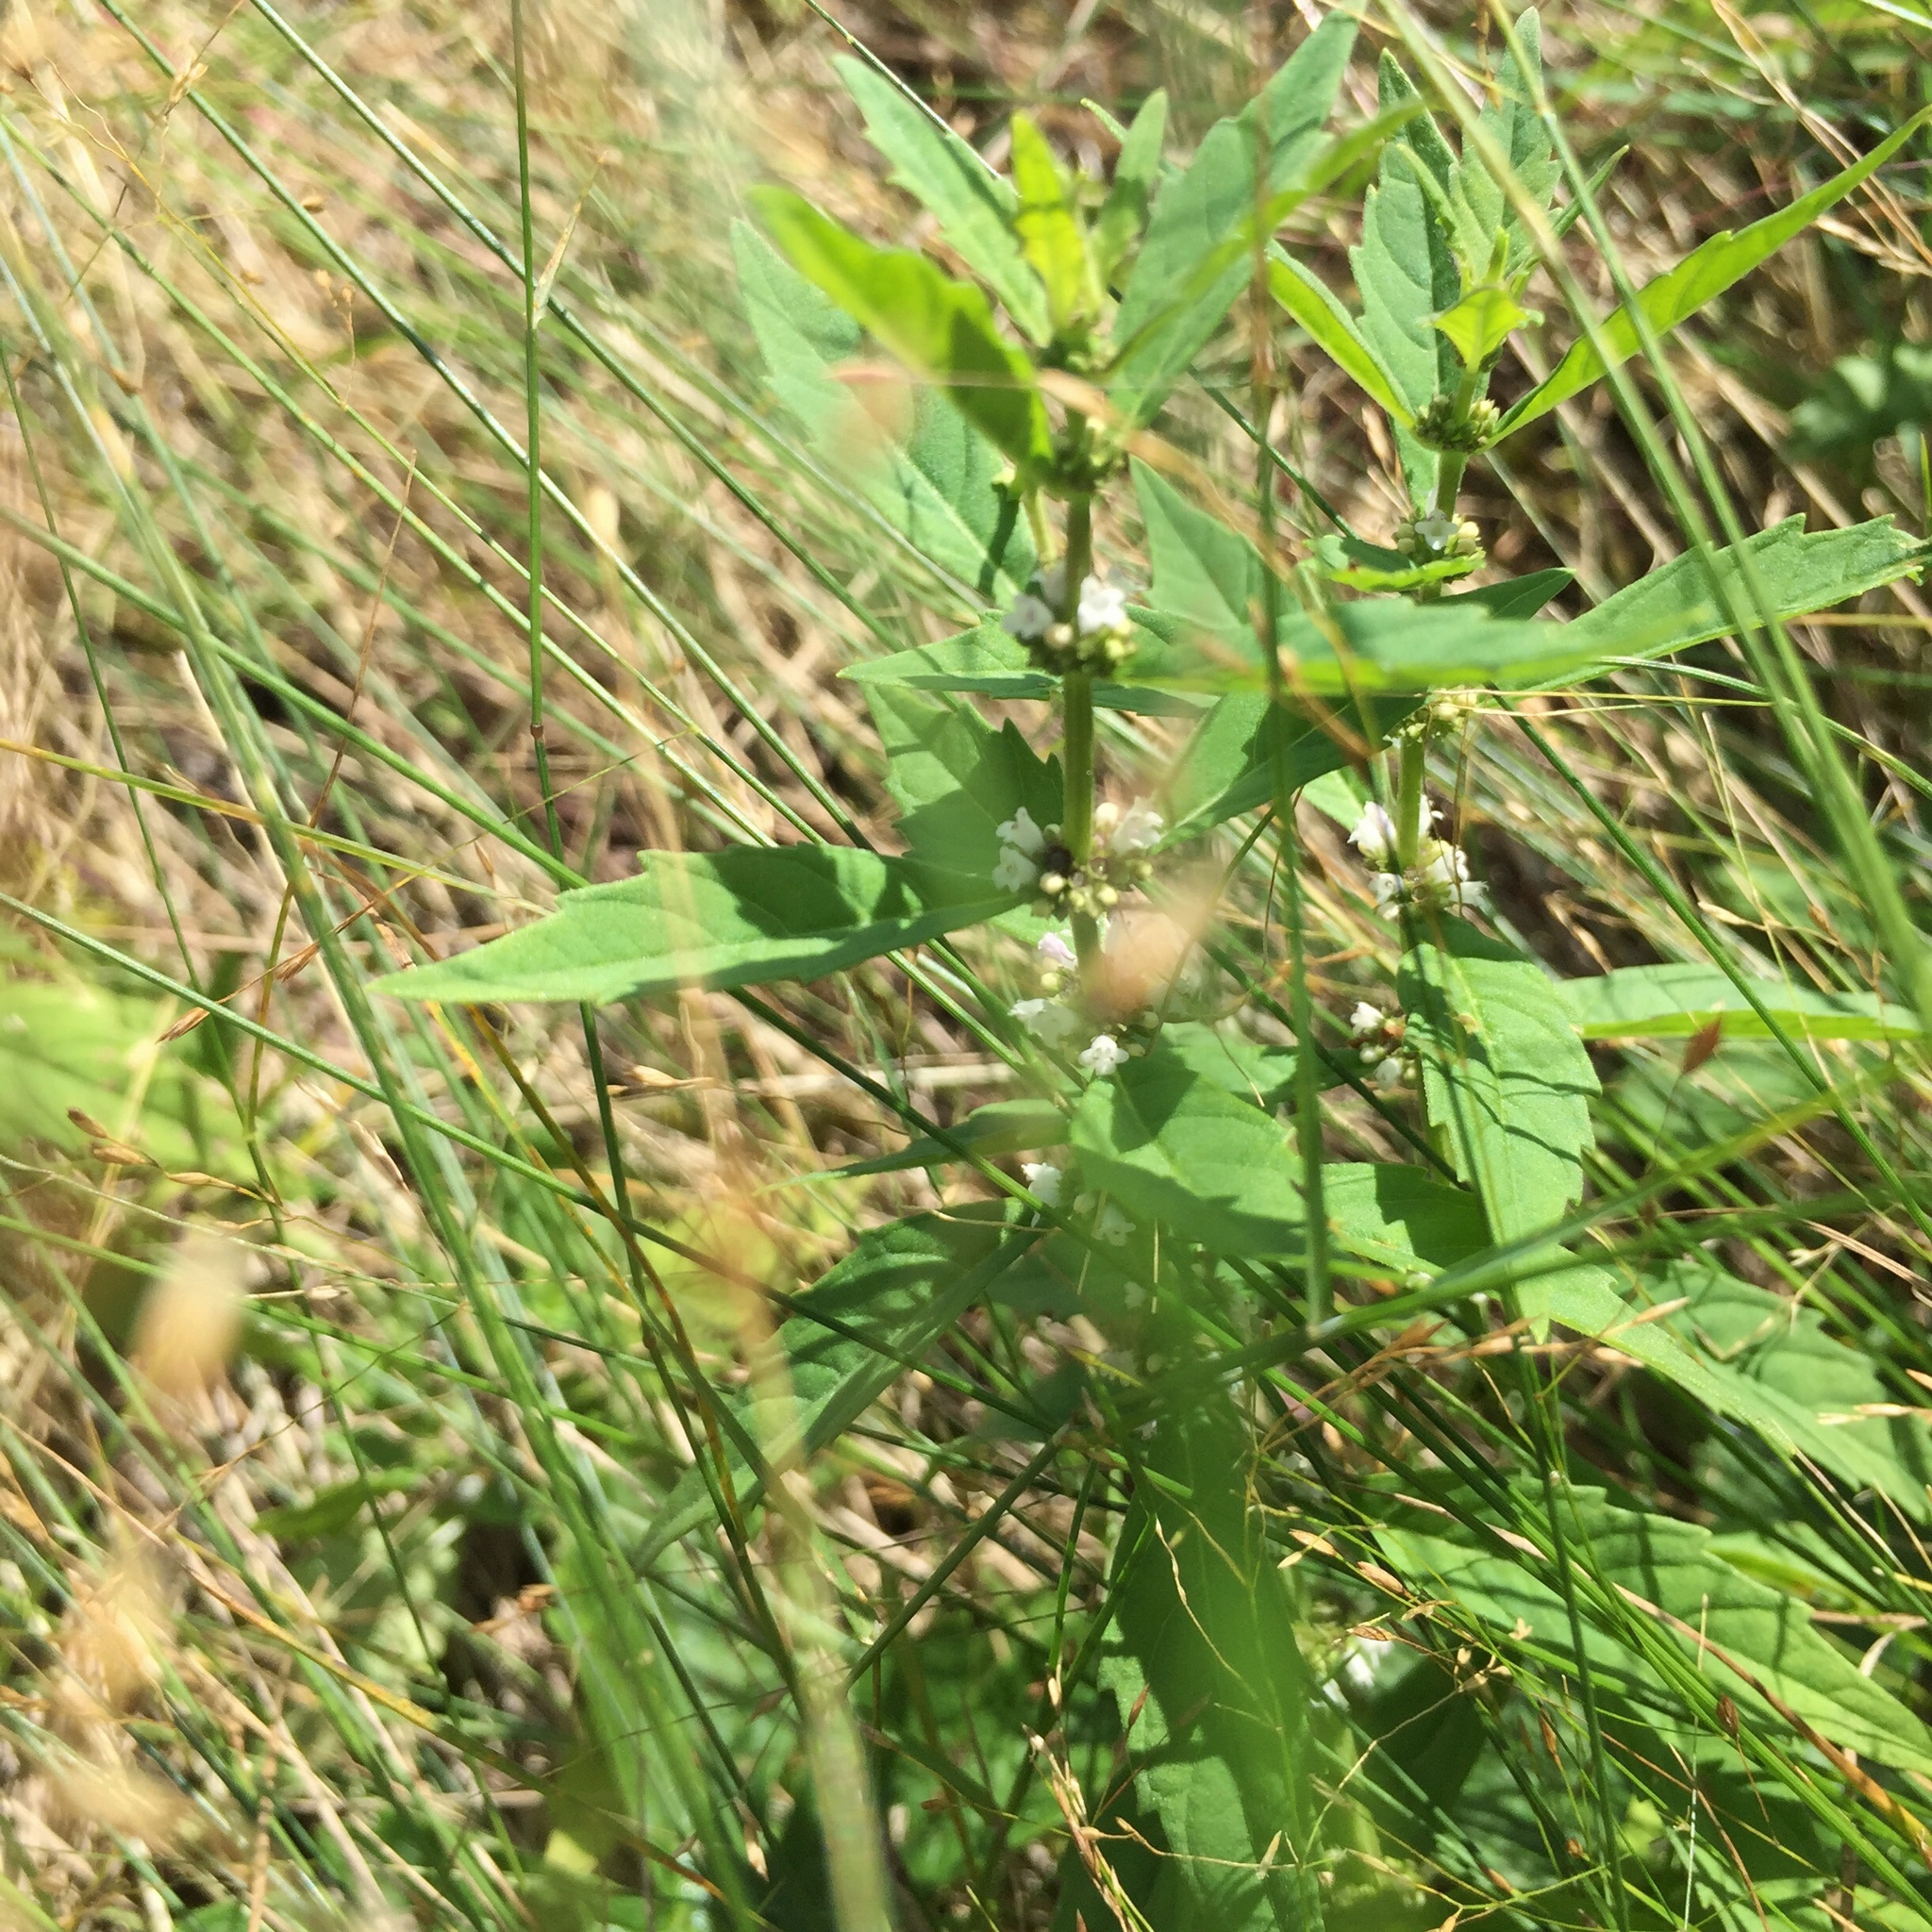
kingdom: Plantae
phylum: Tracheophyta
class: Magnoliopsida
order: Lamiales
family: Lamiaceae
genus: Lycopus
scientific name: Lycopus americanus
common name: American bugleweed
